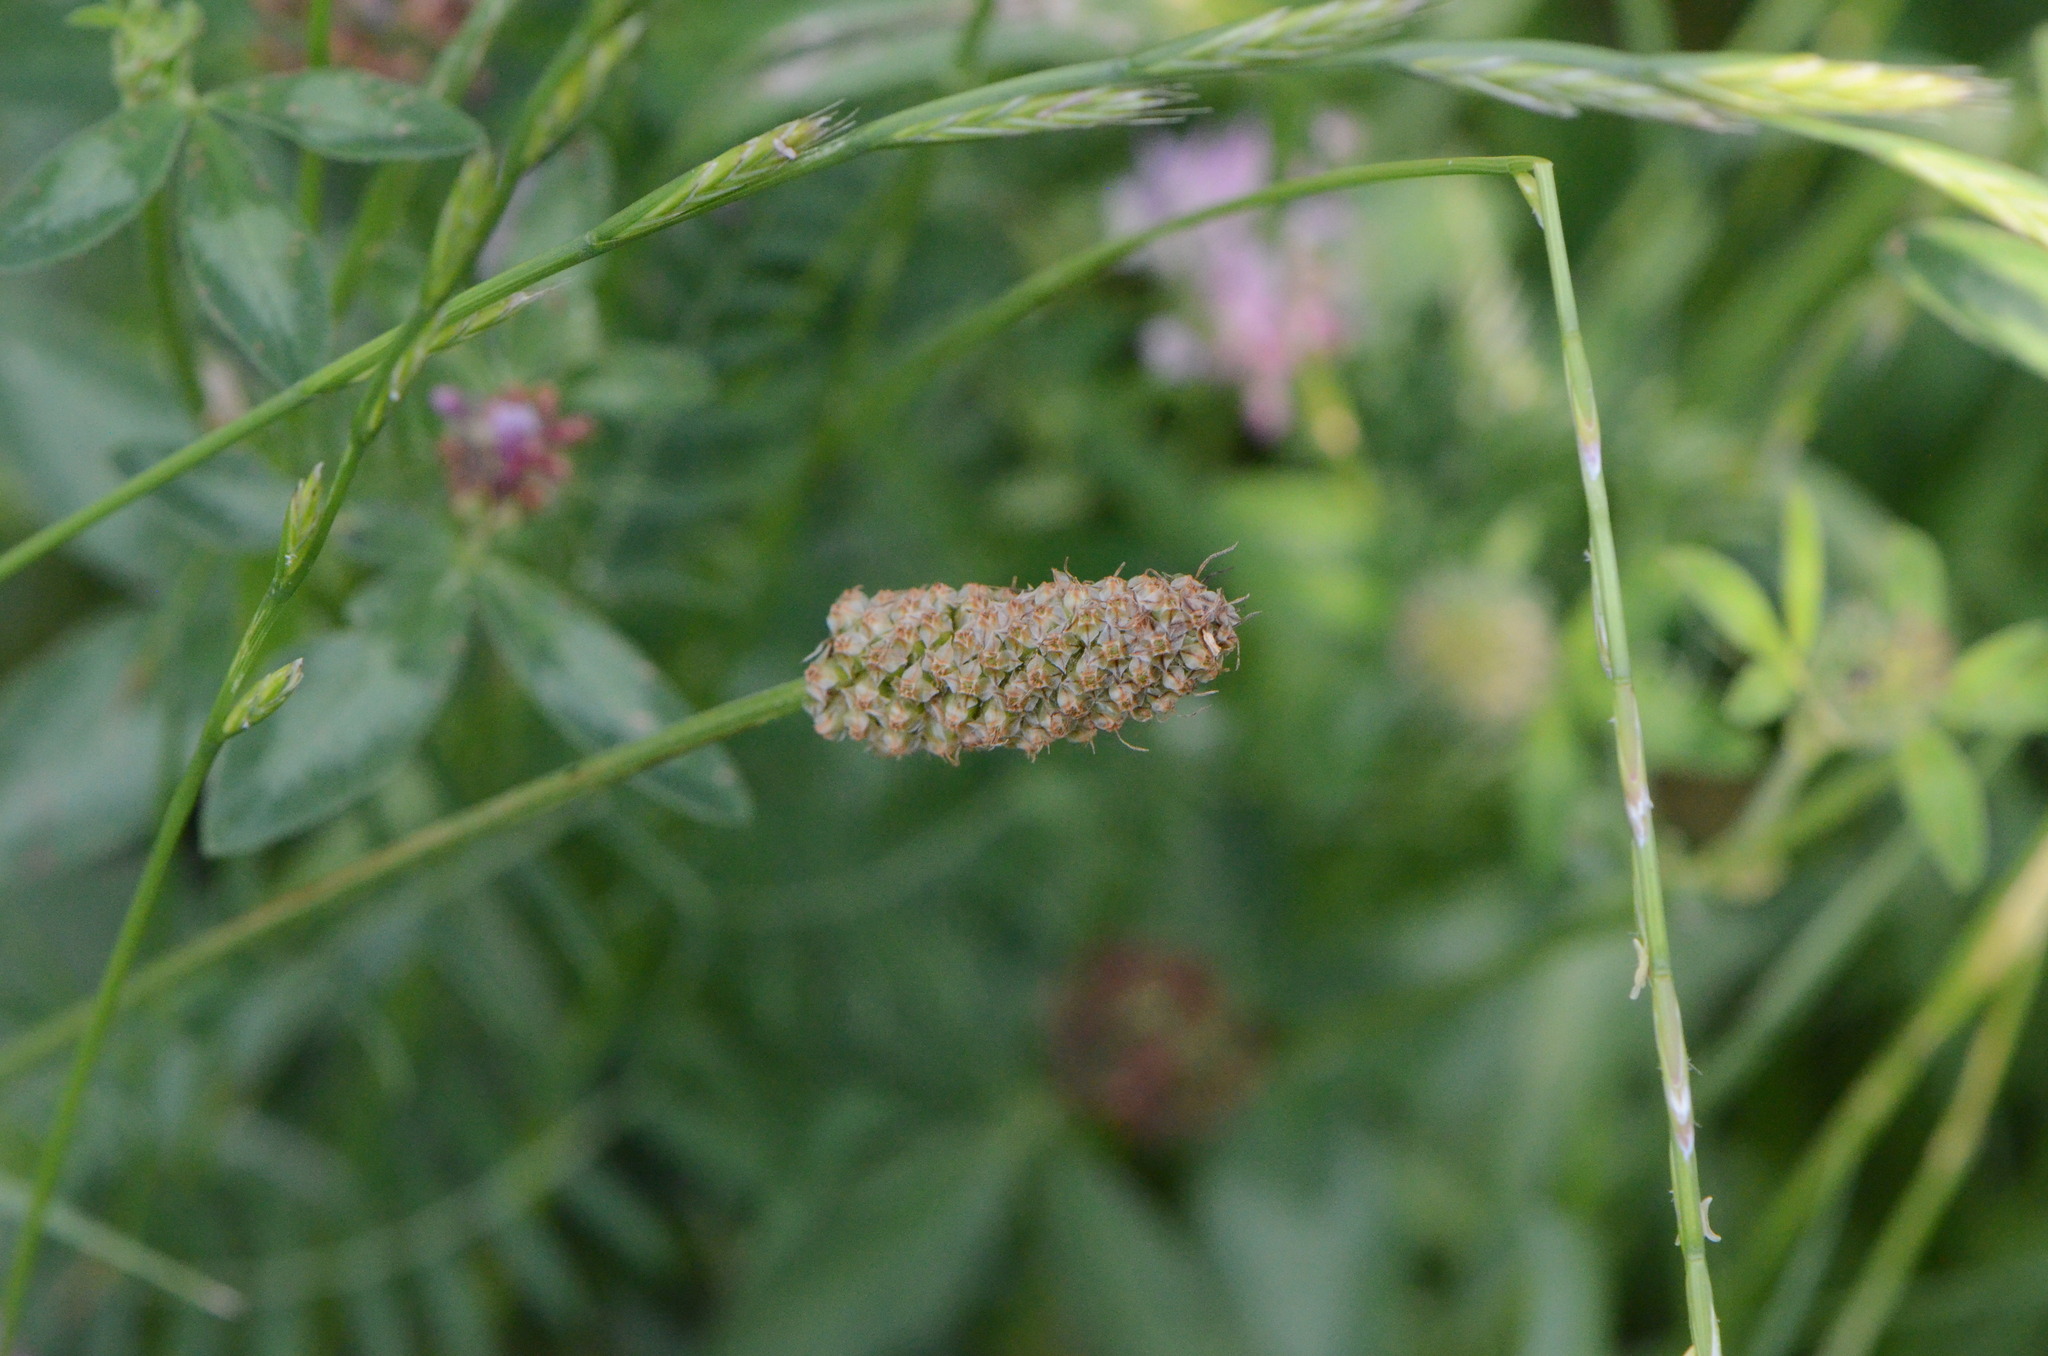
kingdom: Plantae
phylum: Tracheophyta
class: Magnoliopsida
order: Lamiales
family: Plantaginaceae
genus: Plantago
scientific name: Plantago lanceolata
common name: Ribwort plantain
